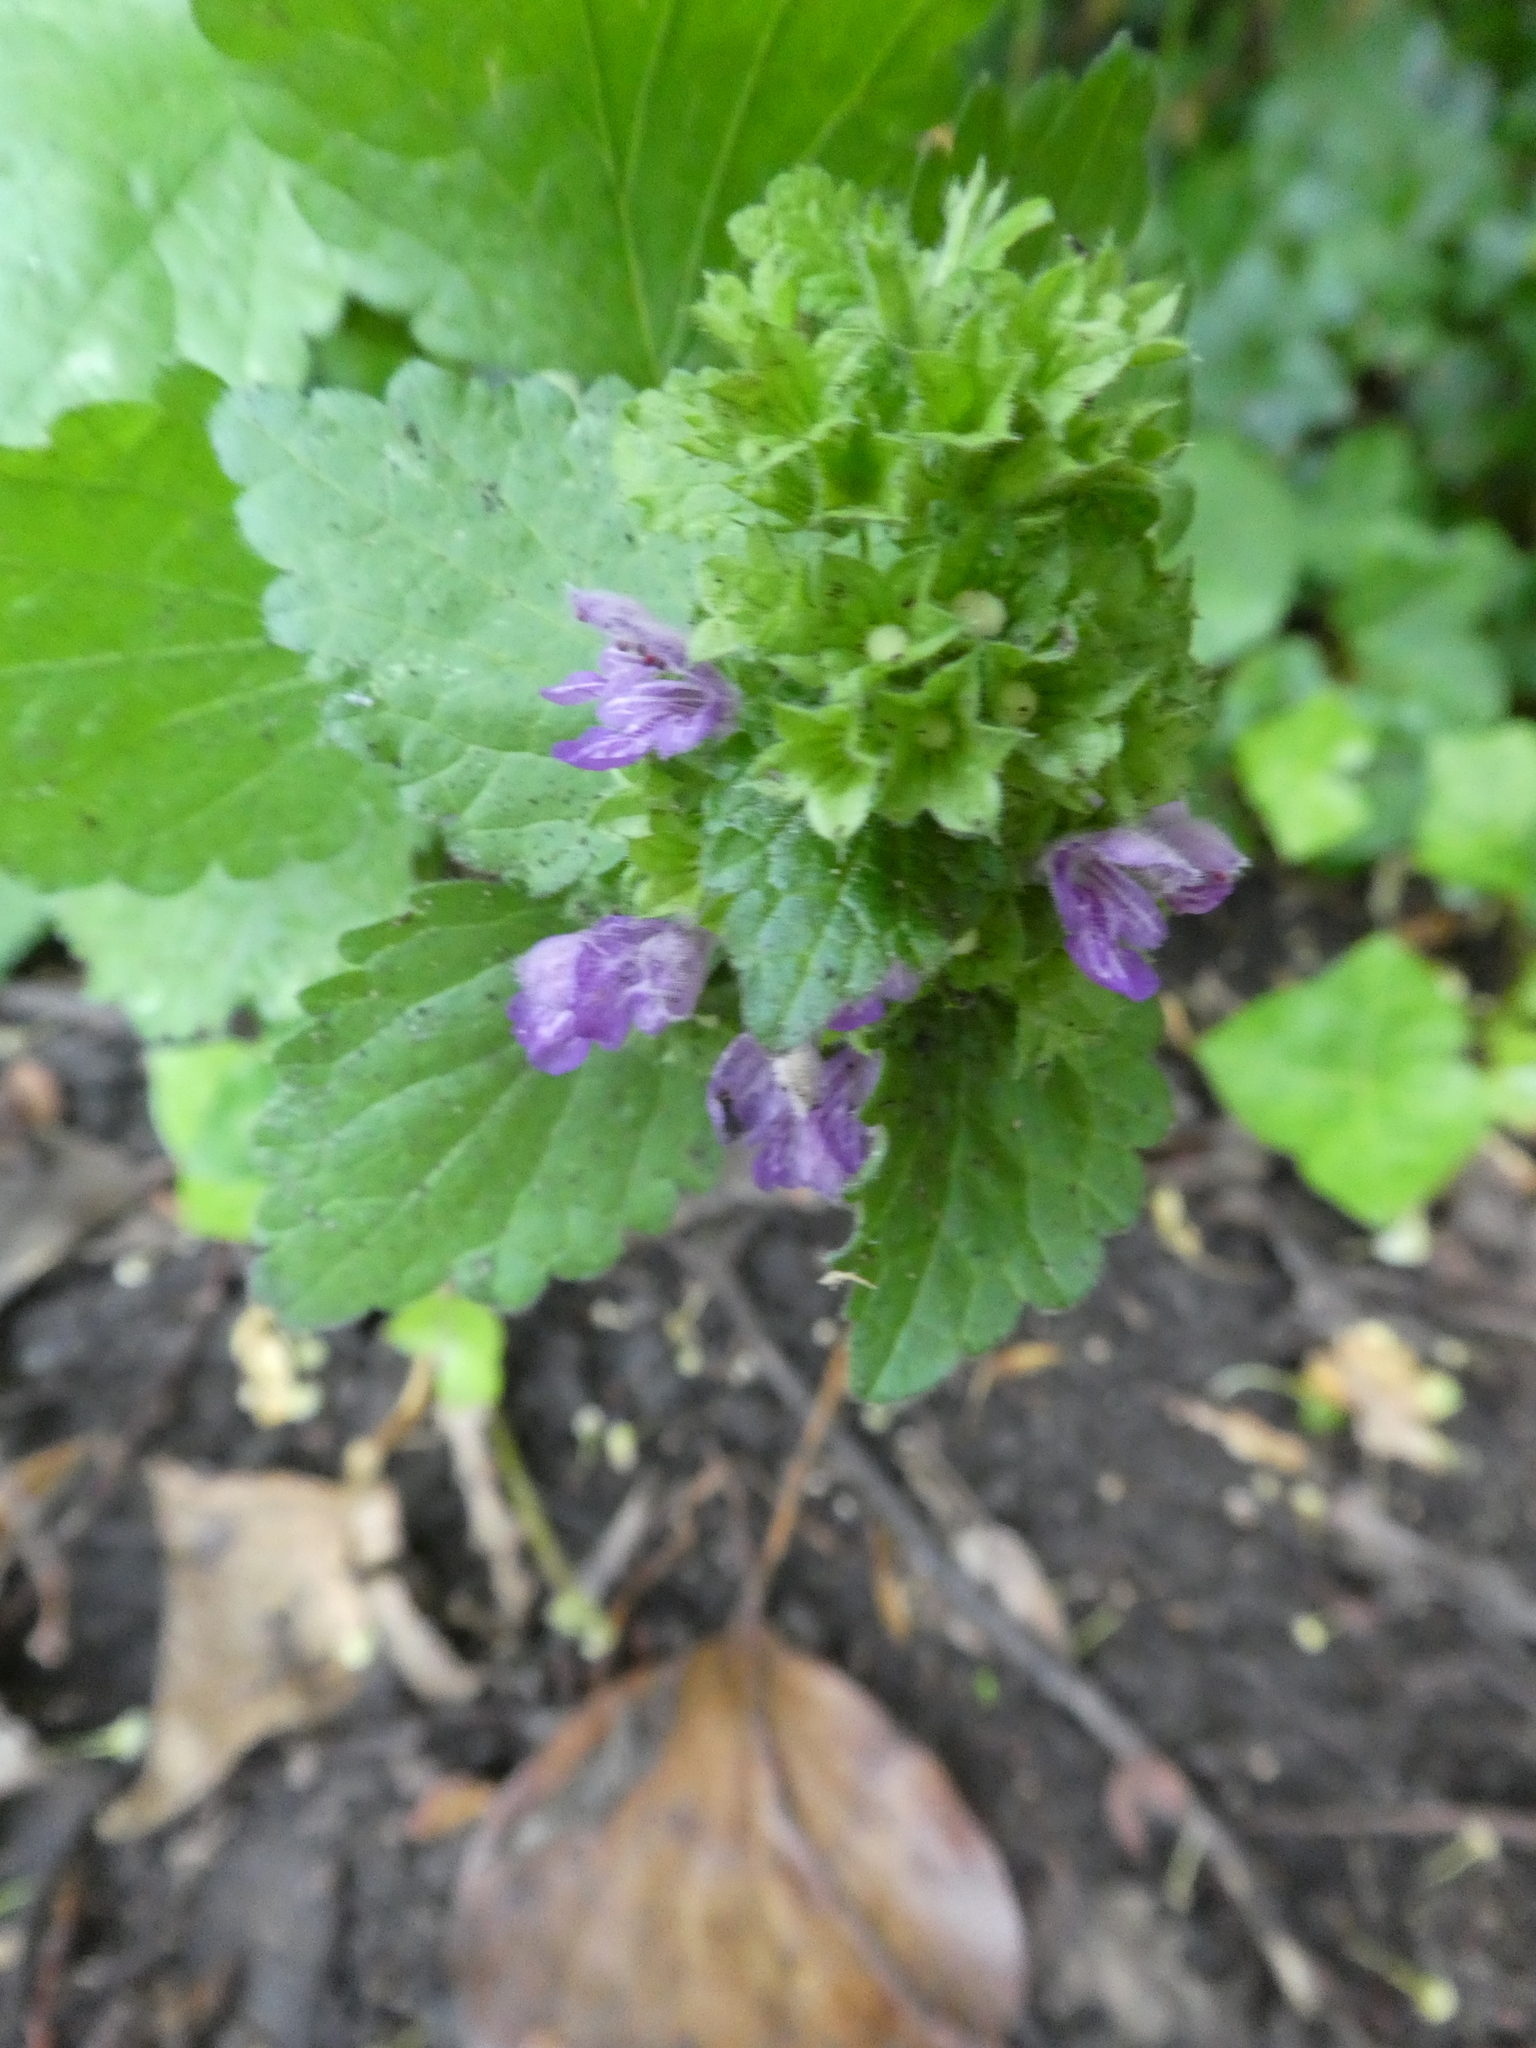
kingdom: Plantae
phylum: Tracheophyta
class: Magnoliopsida
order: Lamiales
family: Lamiaceae
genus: Ballota
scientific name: Ballota nigra
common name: Black horehound
